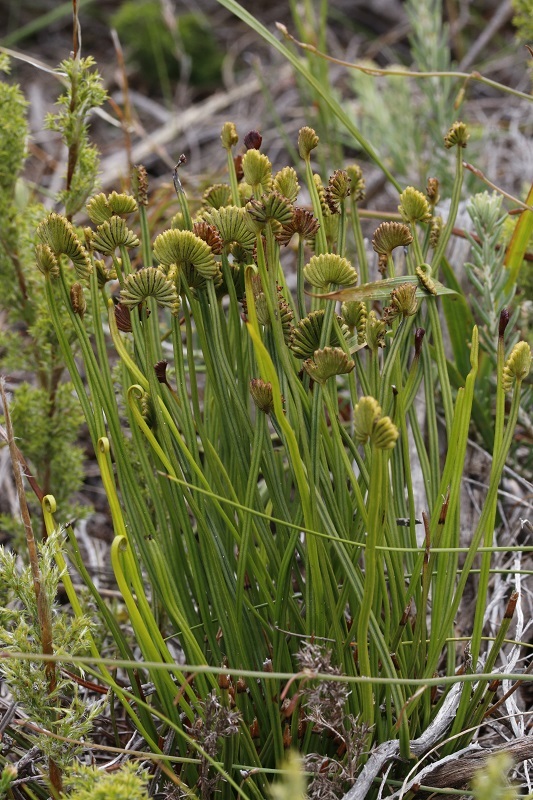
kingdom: Plantae
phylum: Tracheophyta
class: Polypodiopsida
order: Schizaeales
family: Schizaeaceae
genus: Schizaea
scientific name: Schizaea pectinata
